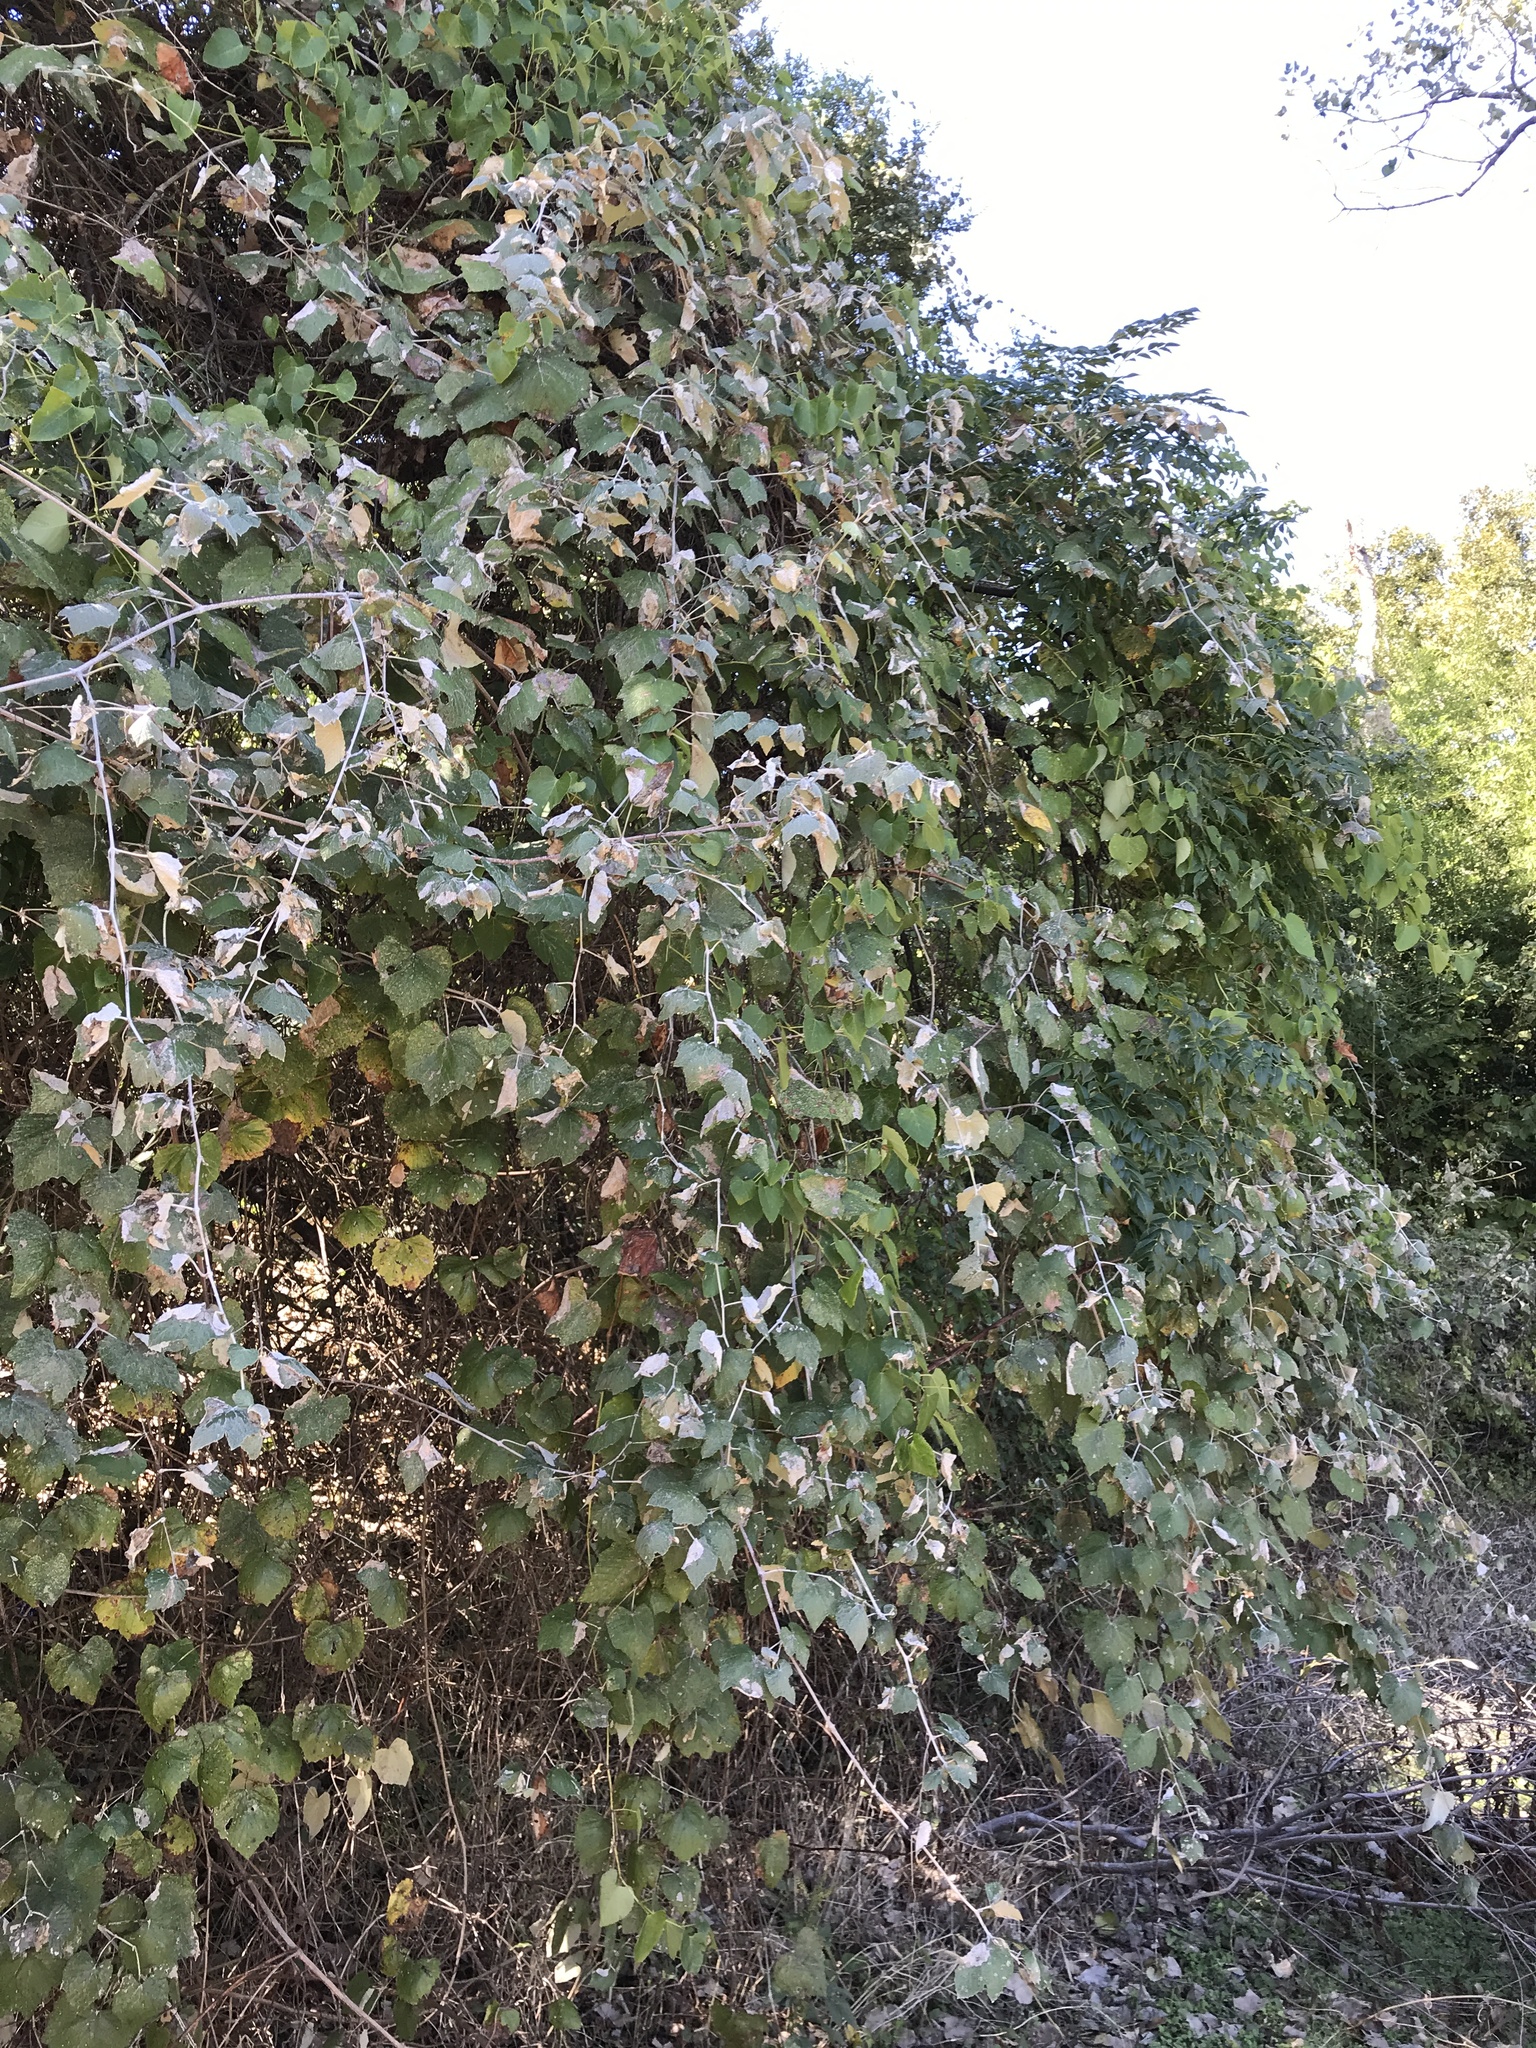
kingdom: Plantae
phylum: Tracheophyta
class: Magnoliopsida
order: Vitales
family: Vitaceae
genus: Vitis
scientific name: Vitis mustangensis
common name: Mustang grape
